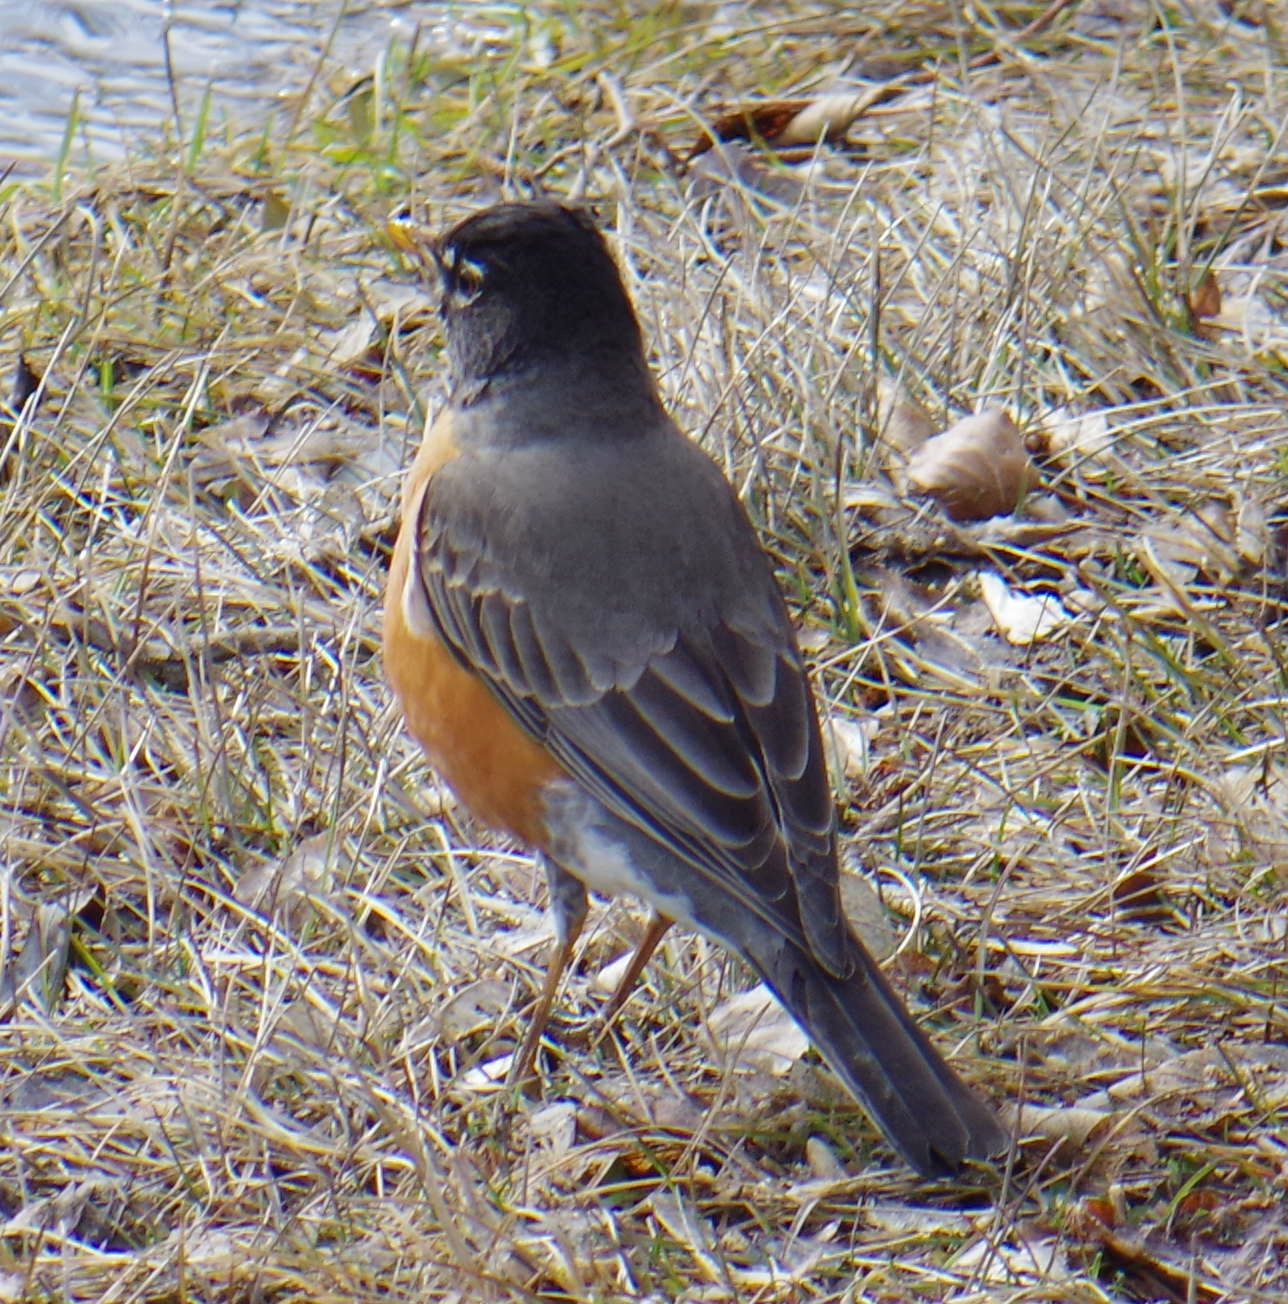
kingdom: Animalia
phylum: Chordata
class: Aves
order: Passeriformes
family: Turdidae
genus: Turdus
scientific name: Turdus migratorius
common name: American robin
